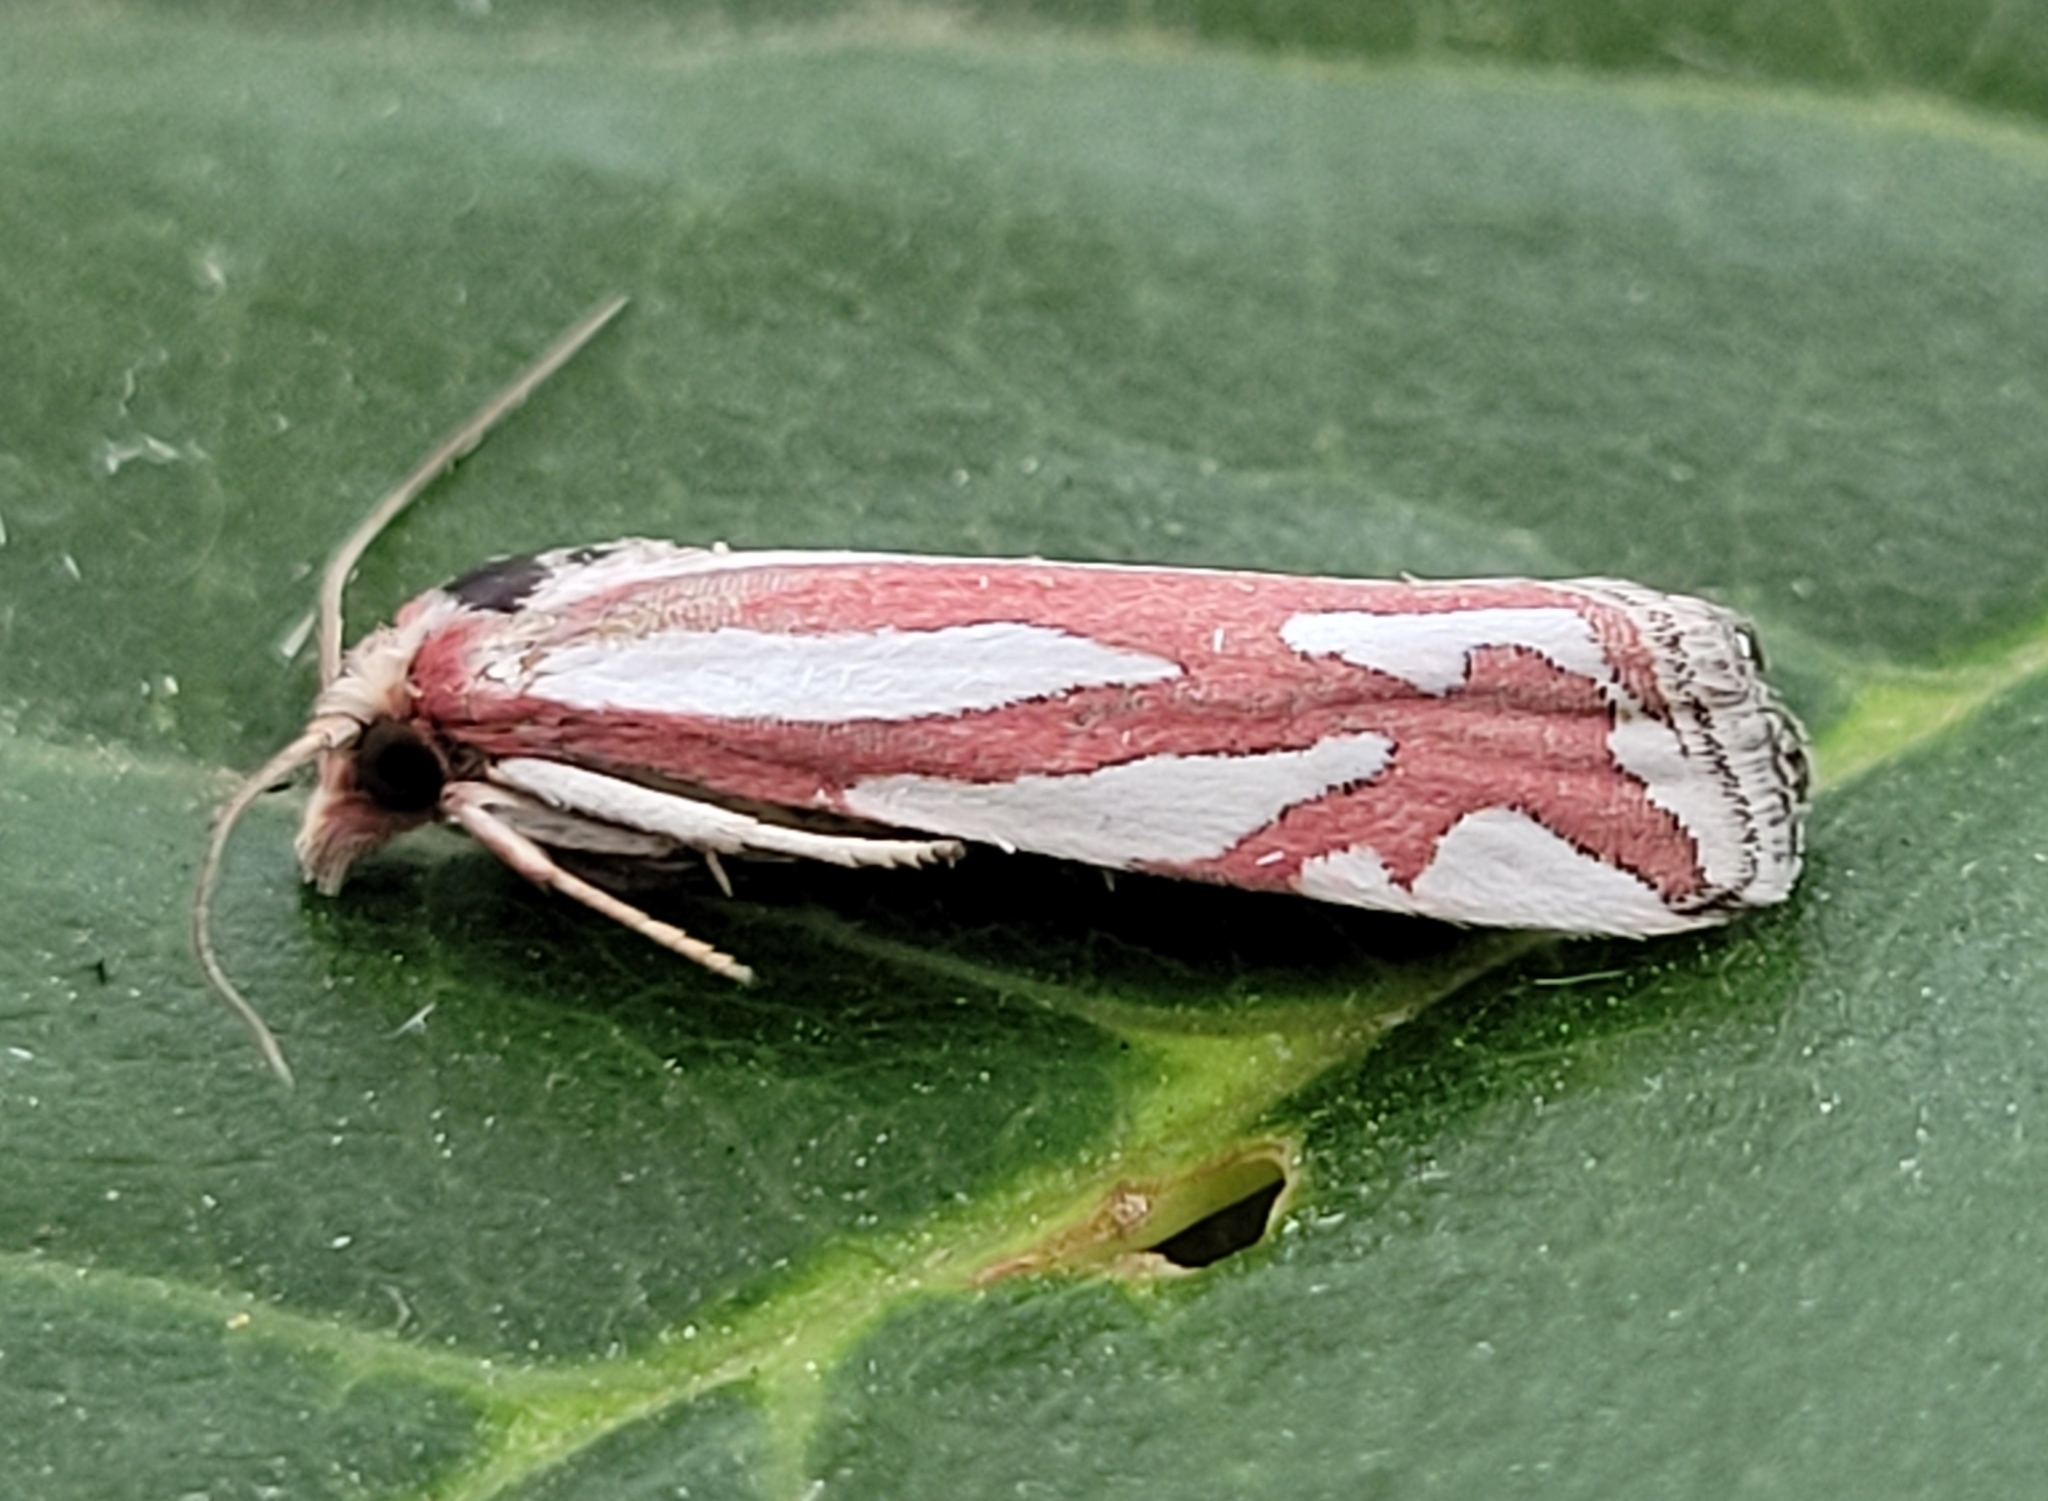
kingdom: Animalia
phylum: Arthropoda
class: Insecta
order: Lepidoptera
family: Tortricidae
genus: Pelochrista
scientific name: Pelochrista fernaldana
